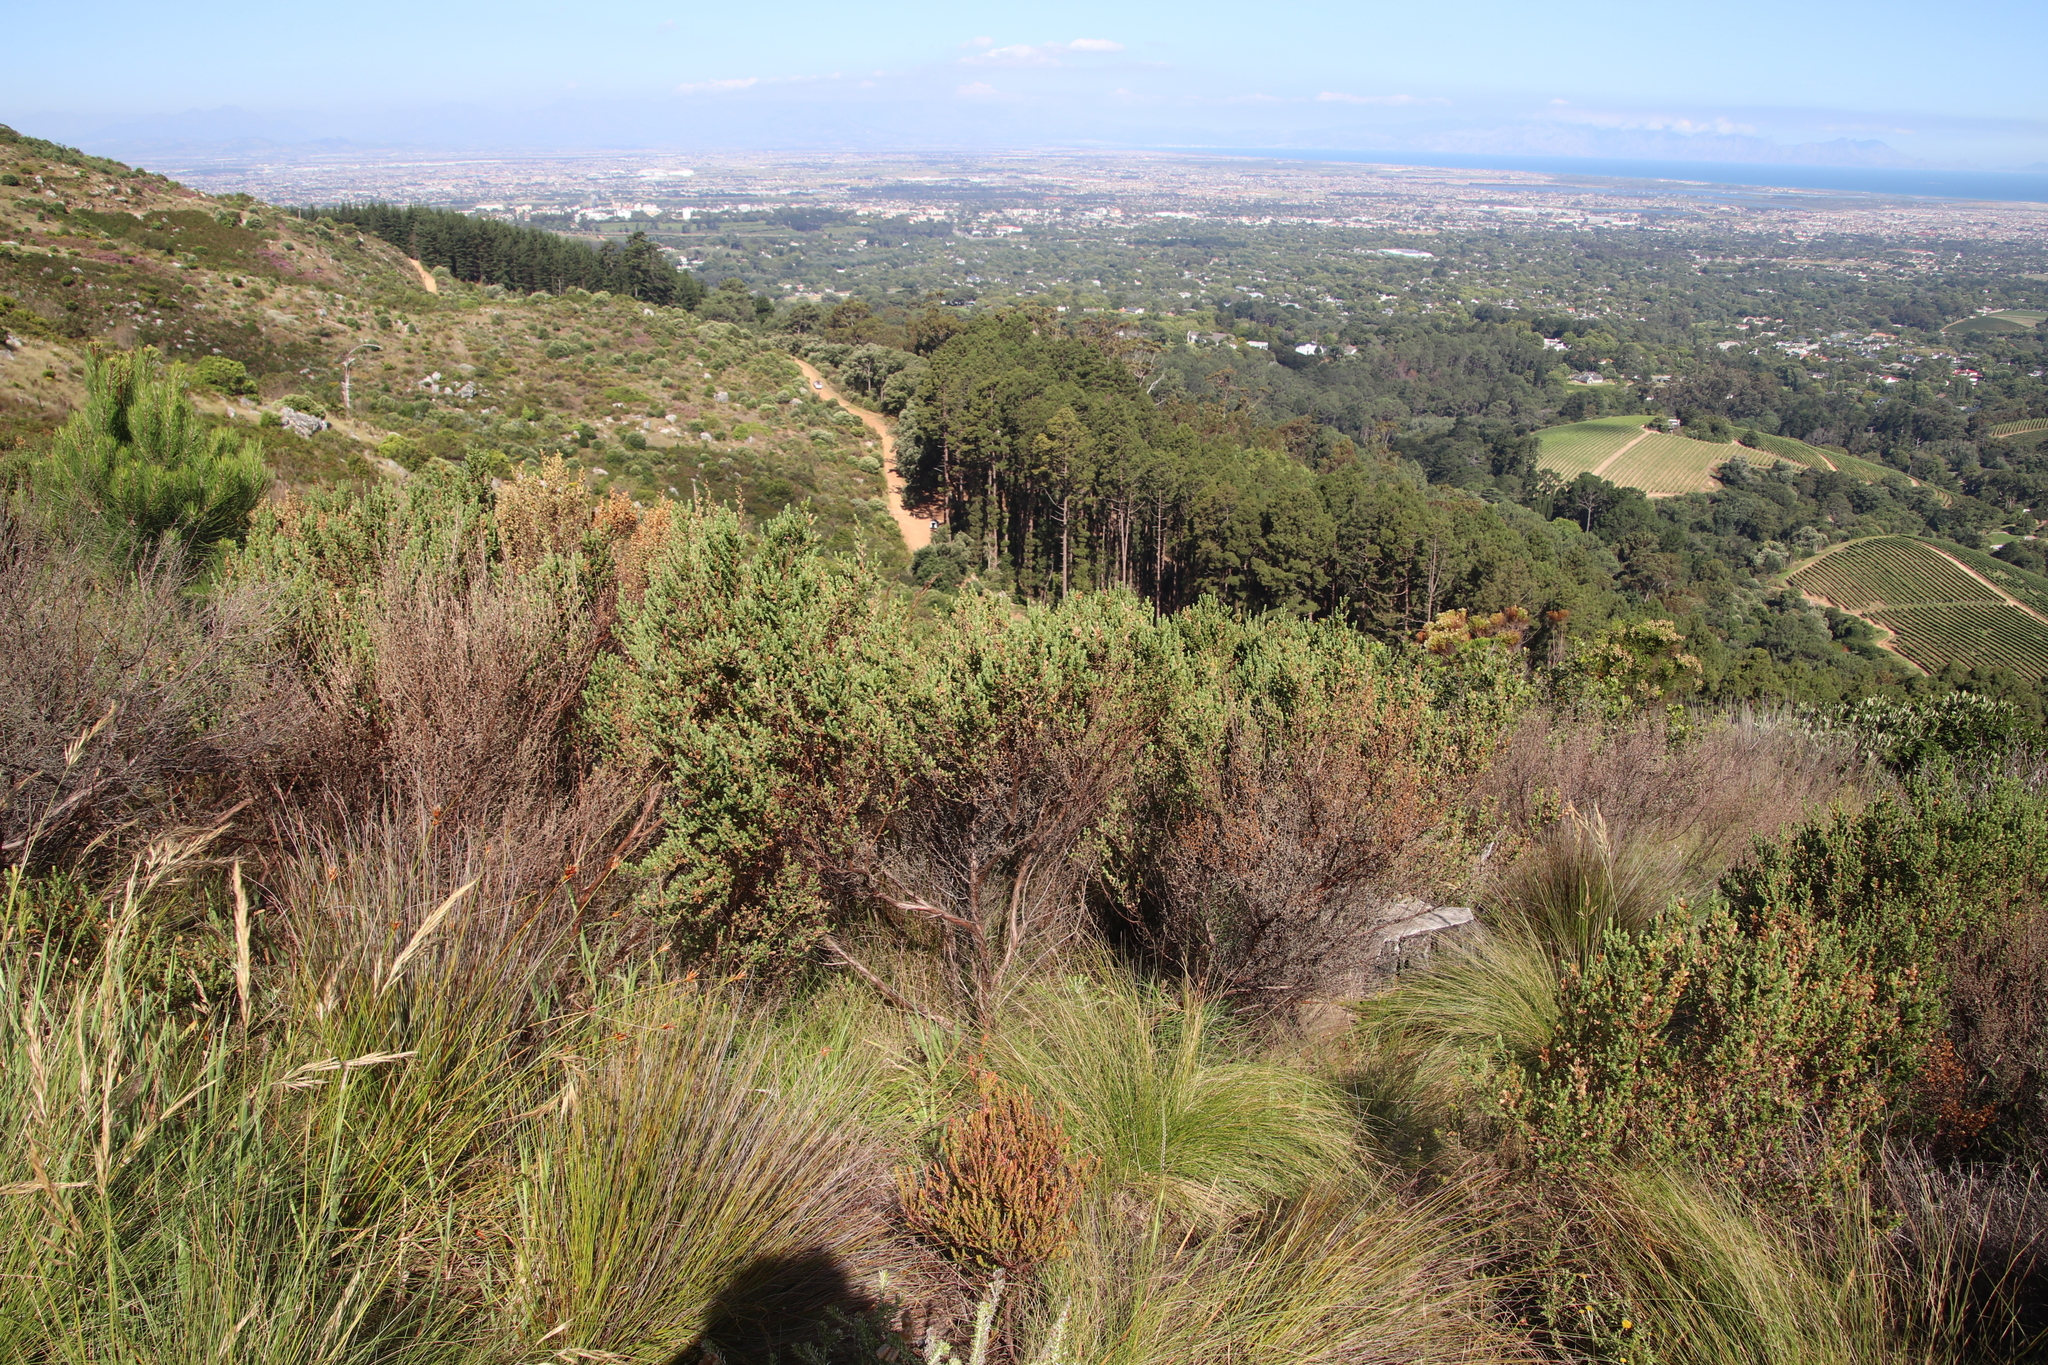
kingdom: Plantae
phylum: Tracheophyta
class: Magnoliopsida
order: Rosales
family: Rosaceae
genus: Cliffortia
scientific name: Cliffortia polygonifolia
